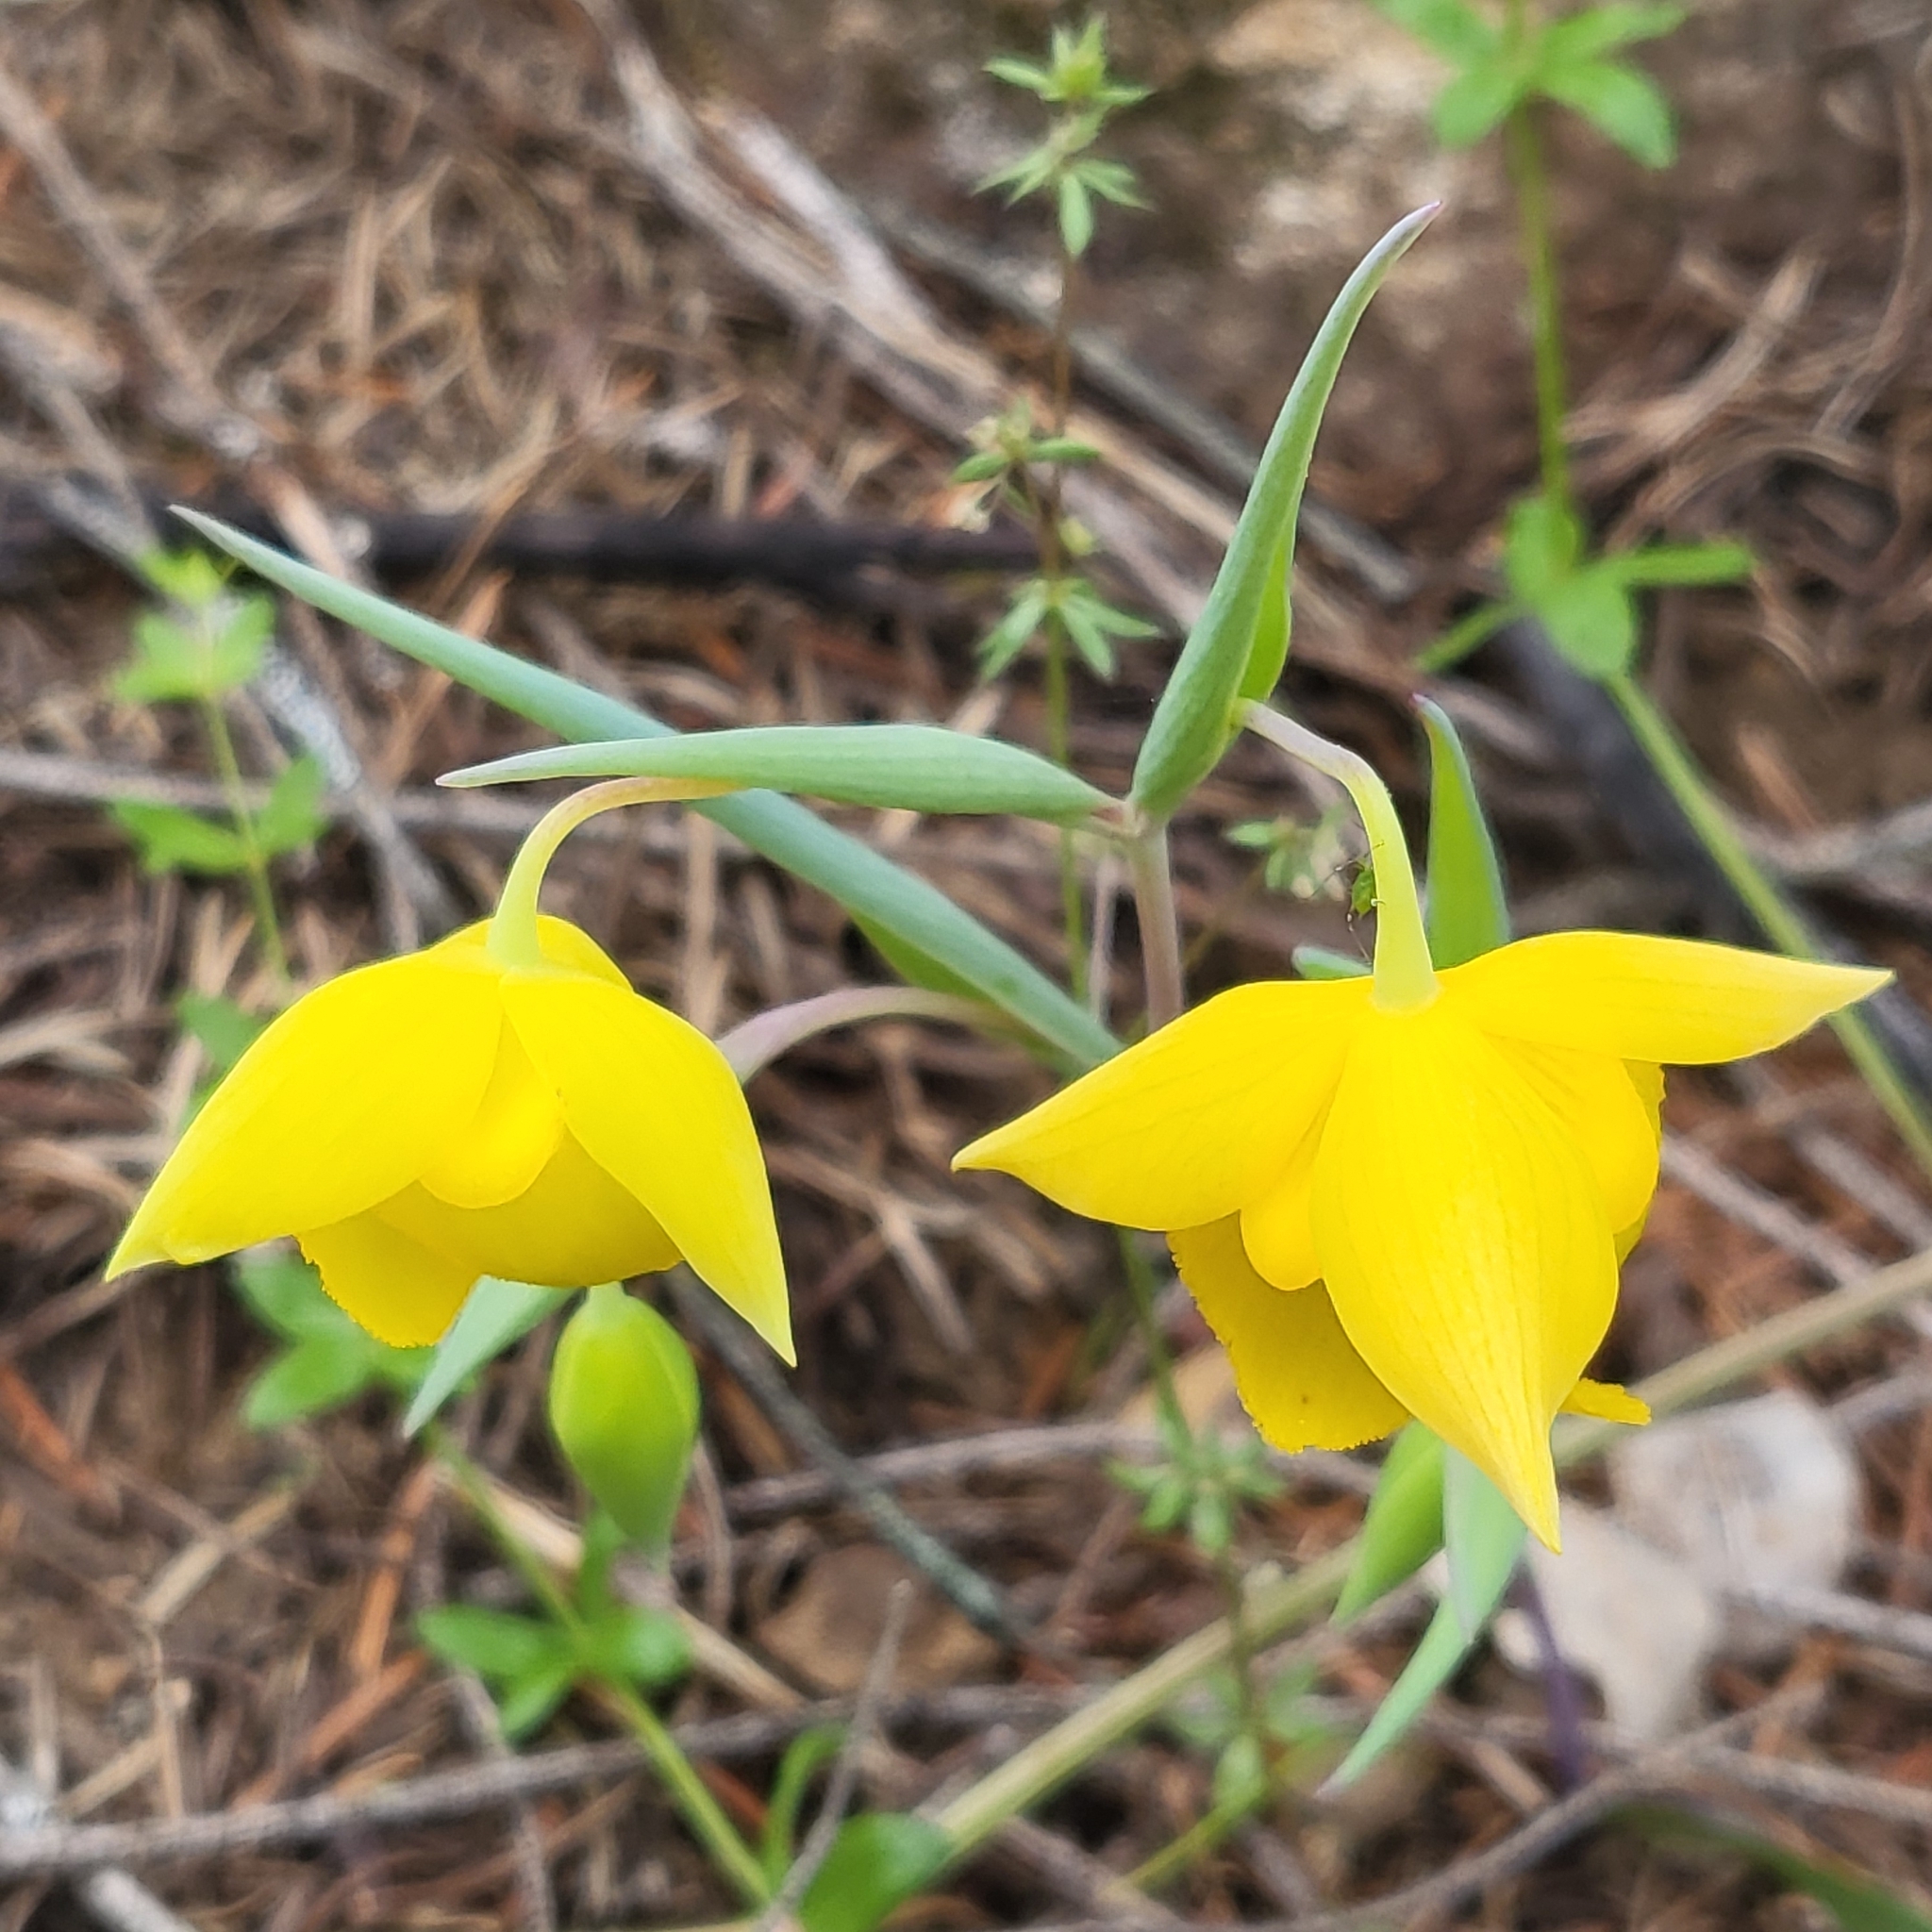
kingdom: Plantae
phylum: Tracheophyta
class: Liliopsida
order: Liliales
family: Liliaceae
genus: Calochortus
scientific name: Calochortus amabilis
